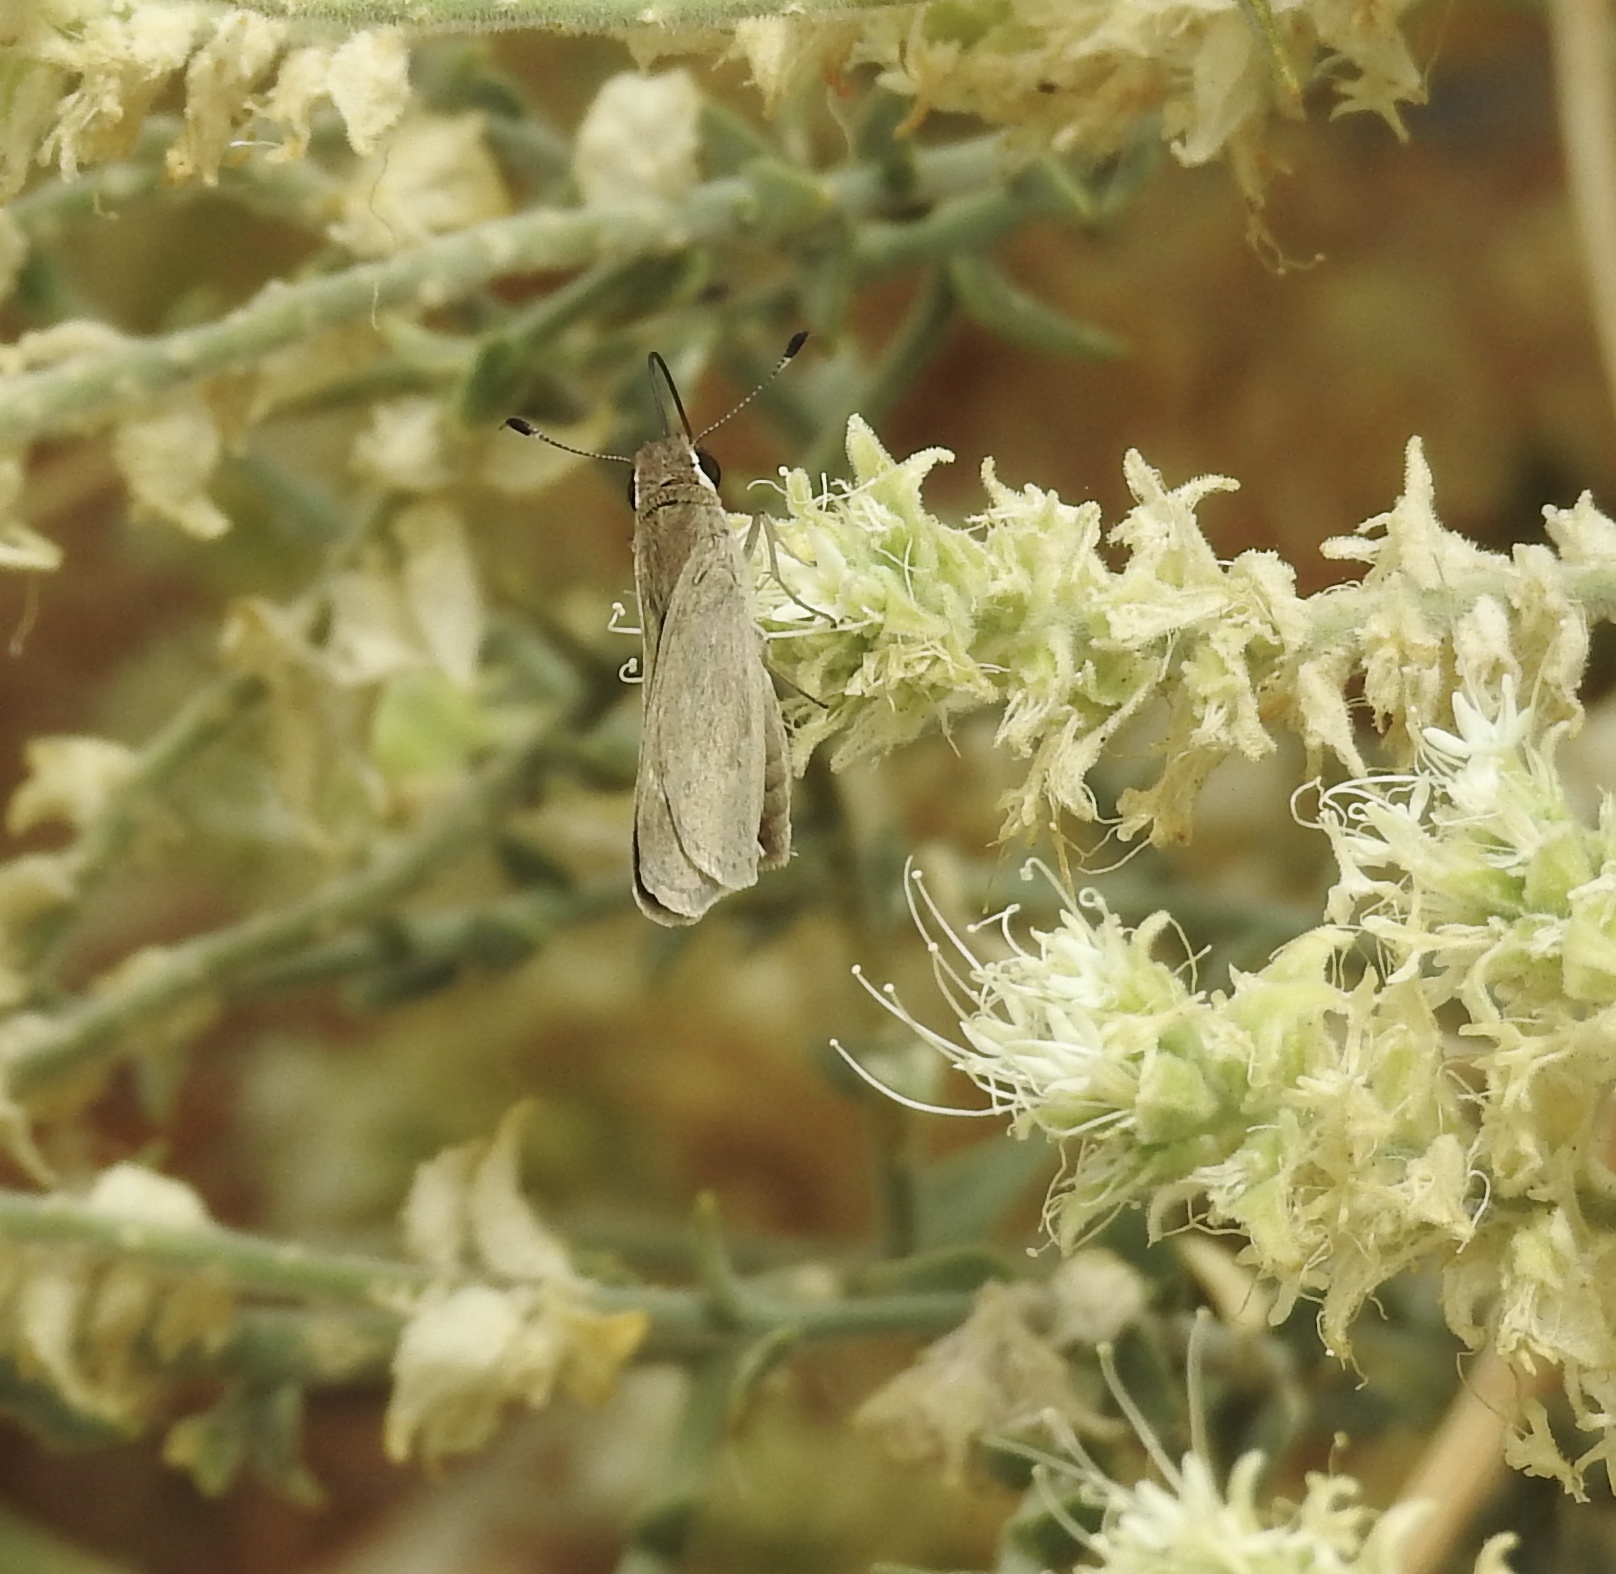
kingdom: Animalia
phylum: Arthropoda
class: Insecta
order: Lepidoptera
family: Hesperiidae
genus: Lerodea
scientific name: Lerodea eufala
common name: Eufala skipper
